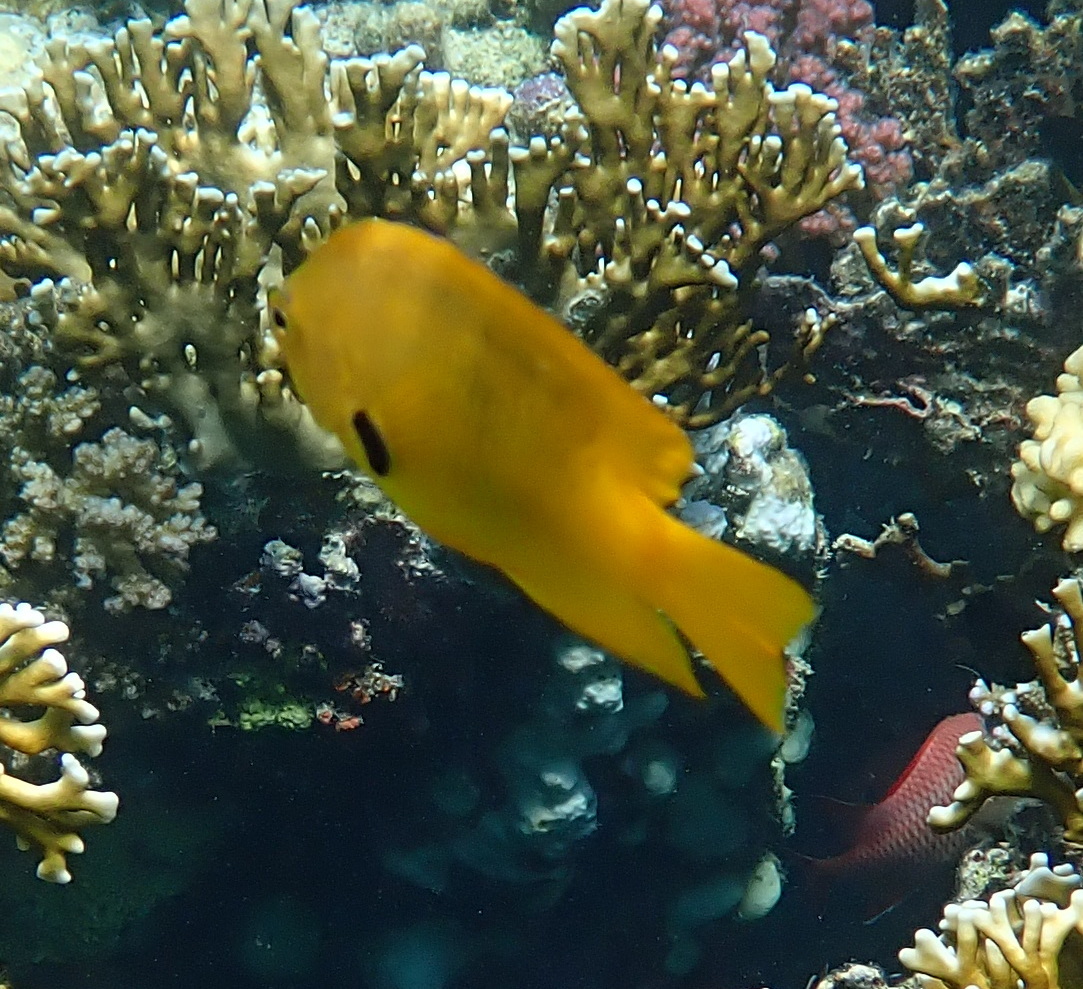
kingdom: Animalia
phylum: Chordata
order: Perciformes
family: Pomacentridae
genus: Pomacentrus
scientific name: Pomacentrus sulfureus
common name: Sulfur damsel
